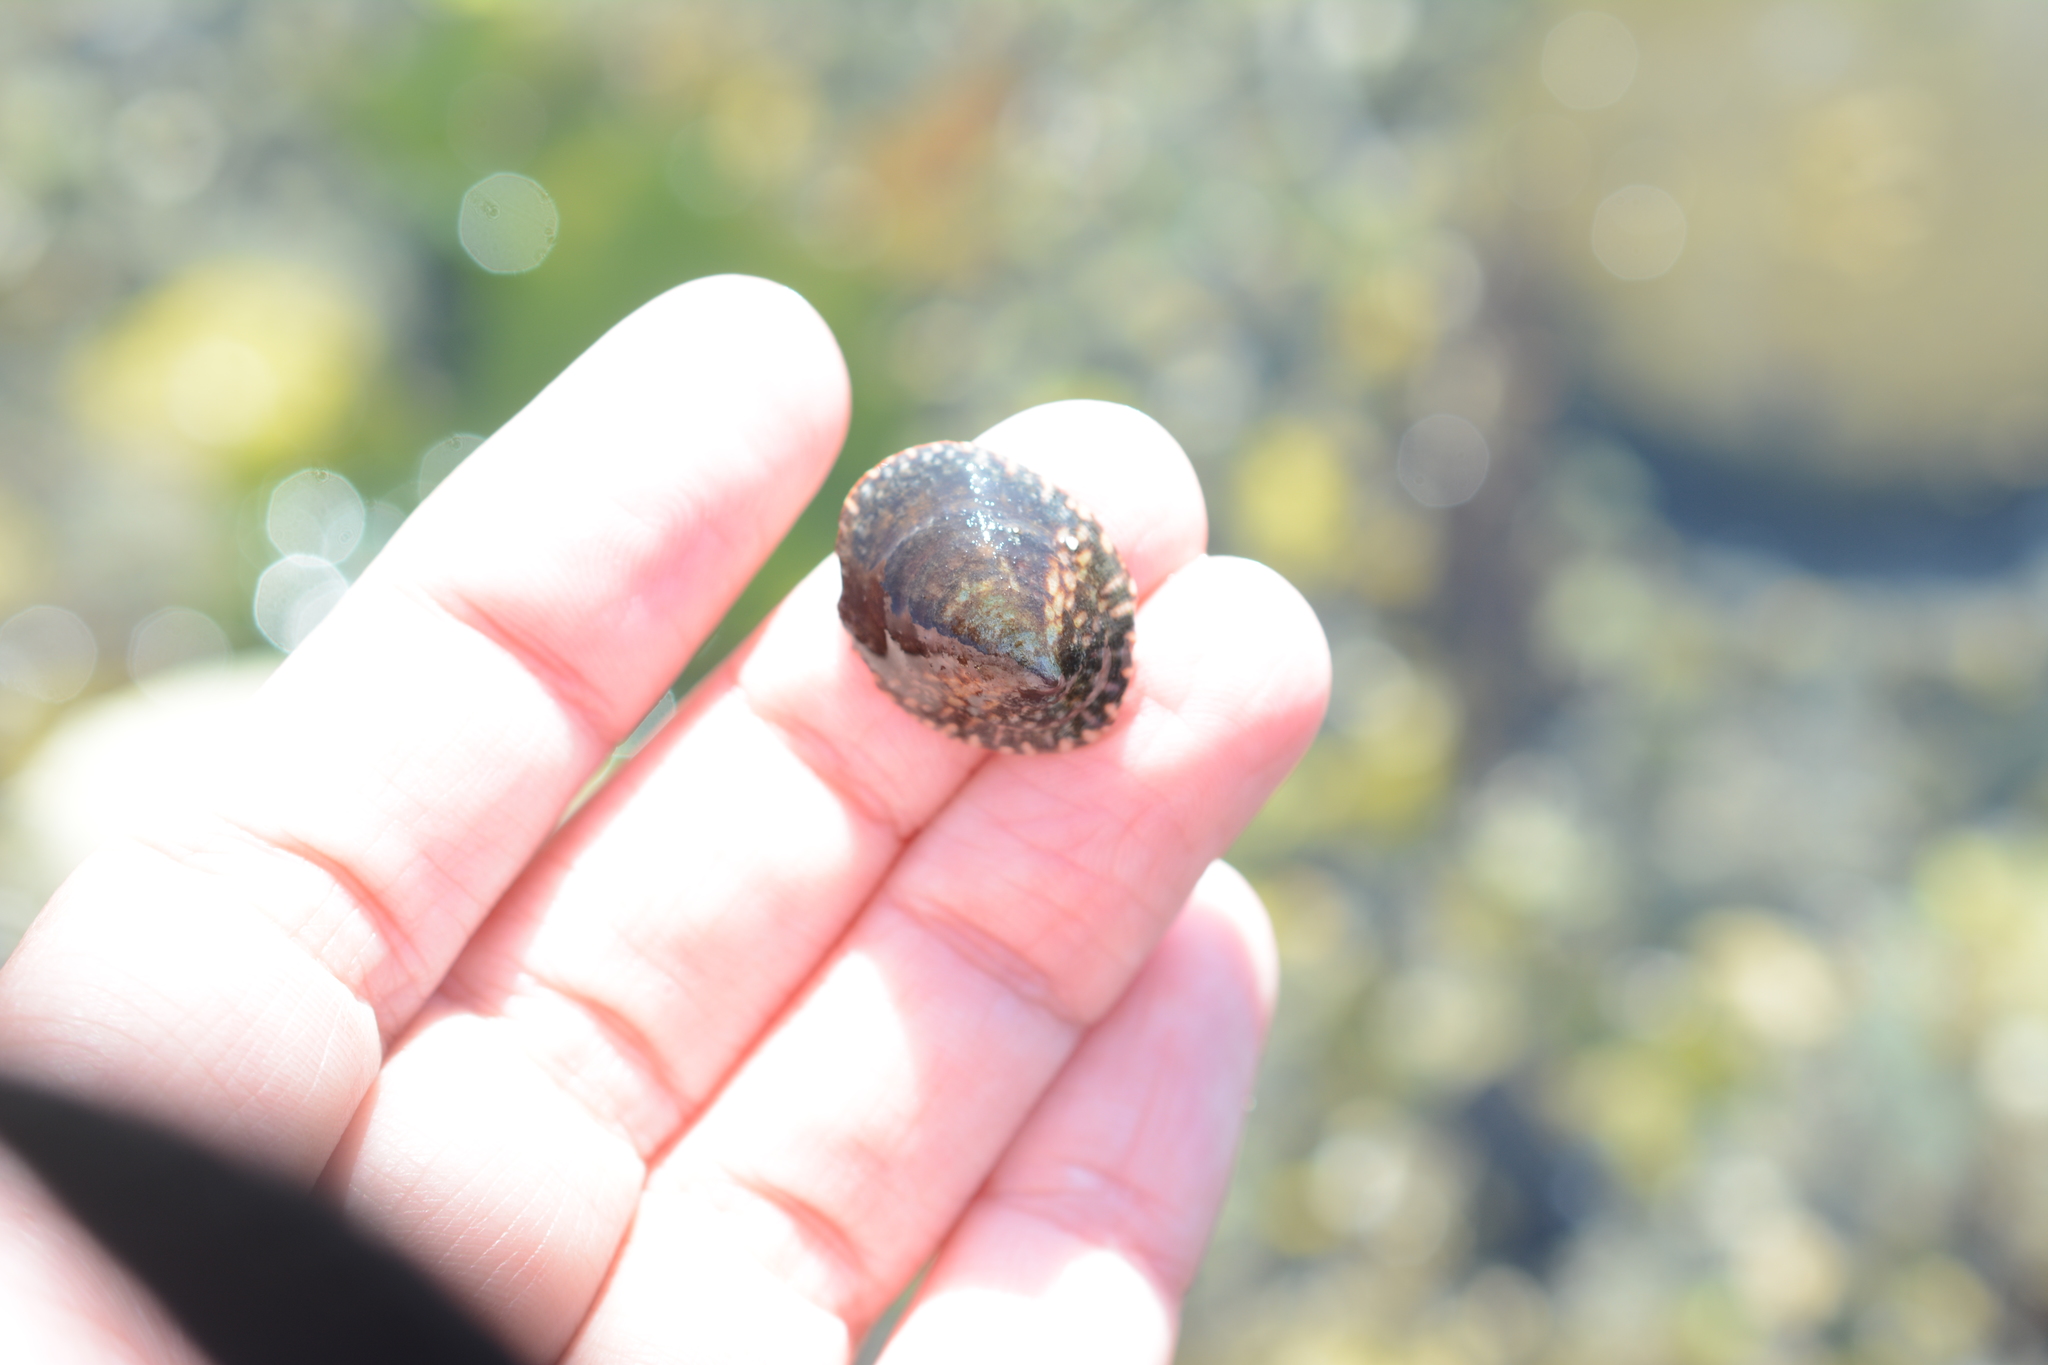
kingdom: Animalia
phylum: Mollusca
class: Gastropoda
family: Lottiidae
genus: Lottia
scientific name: Lottia persona
